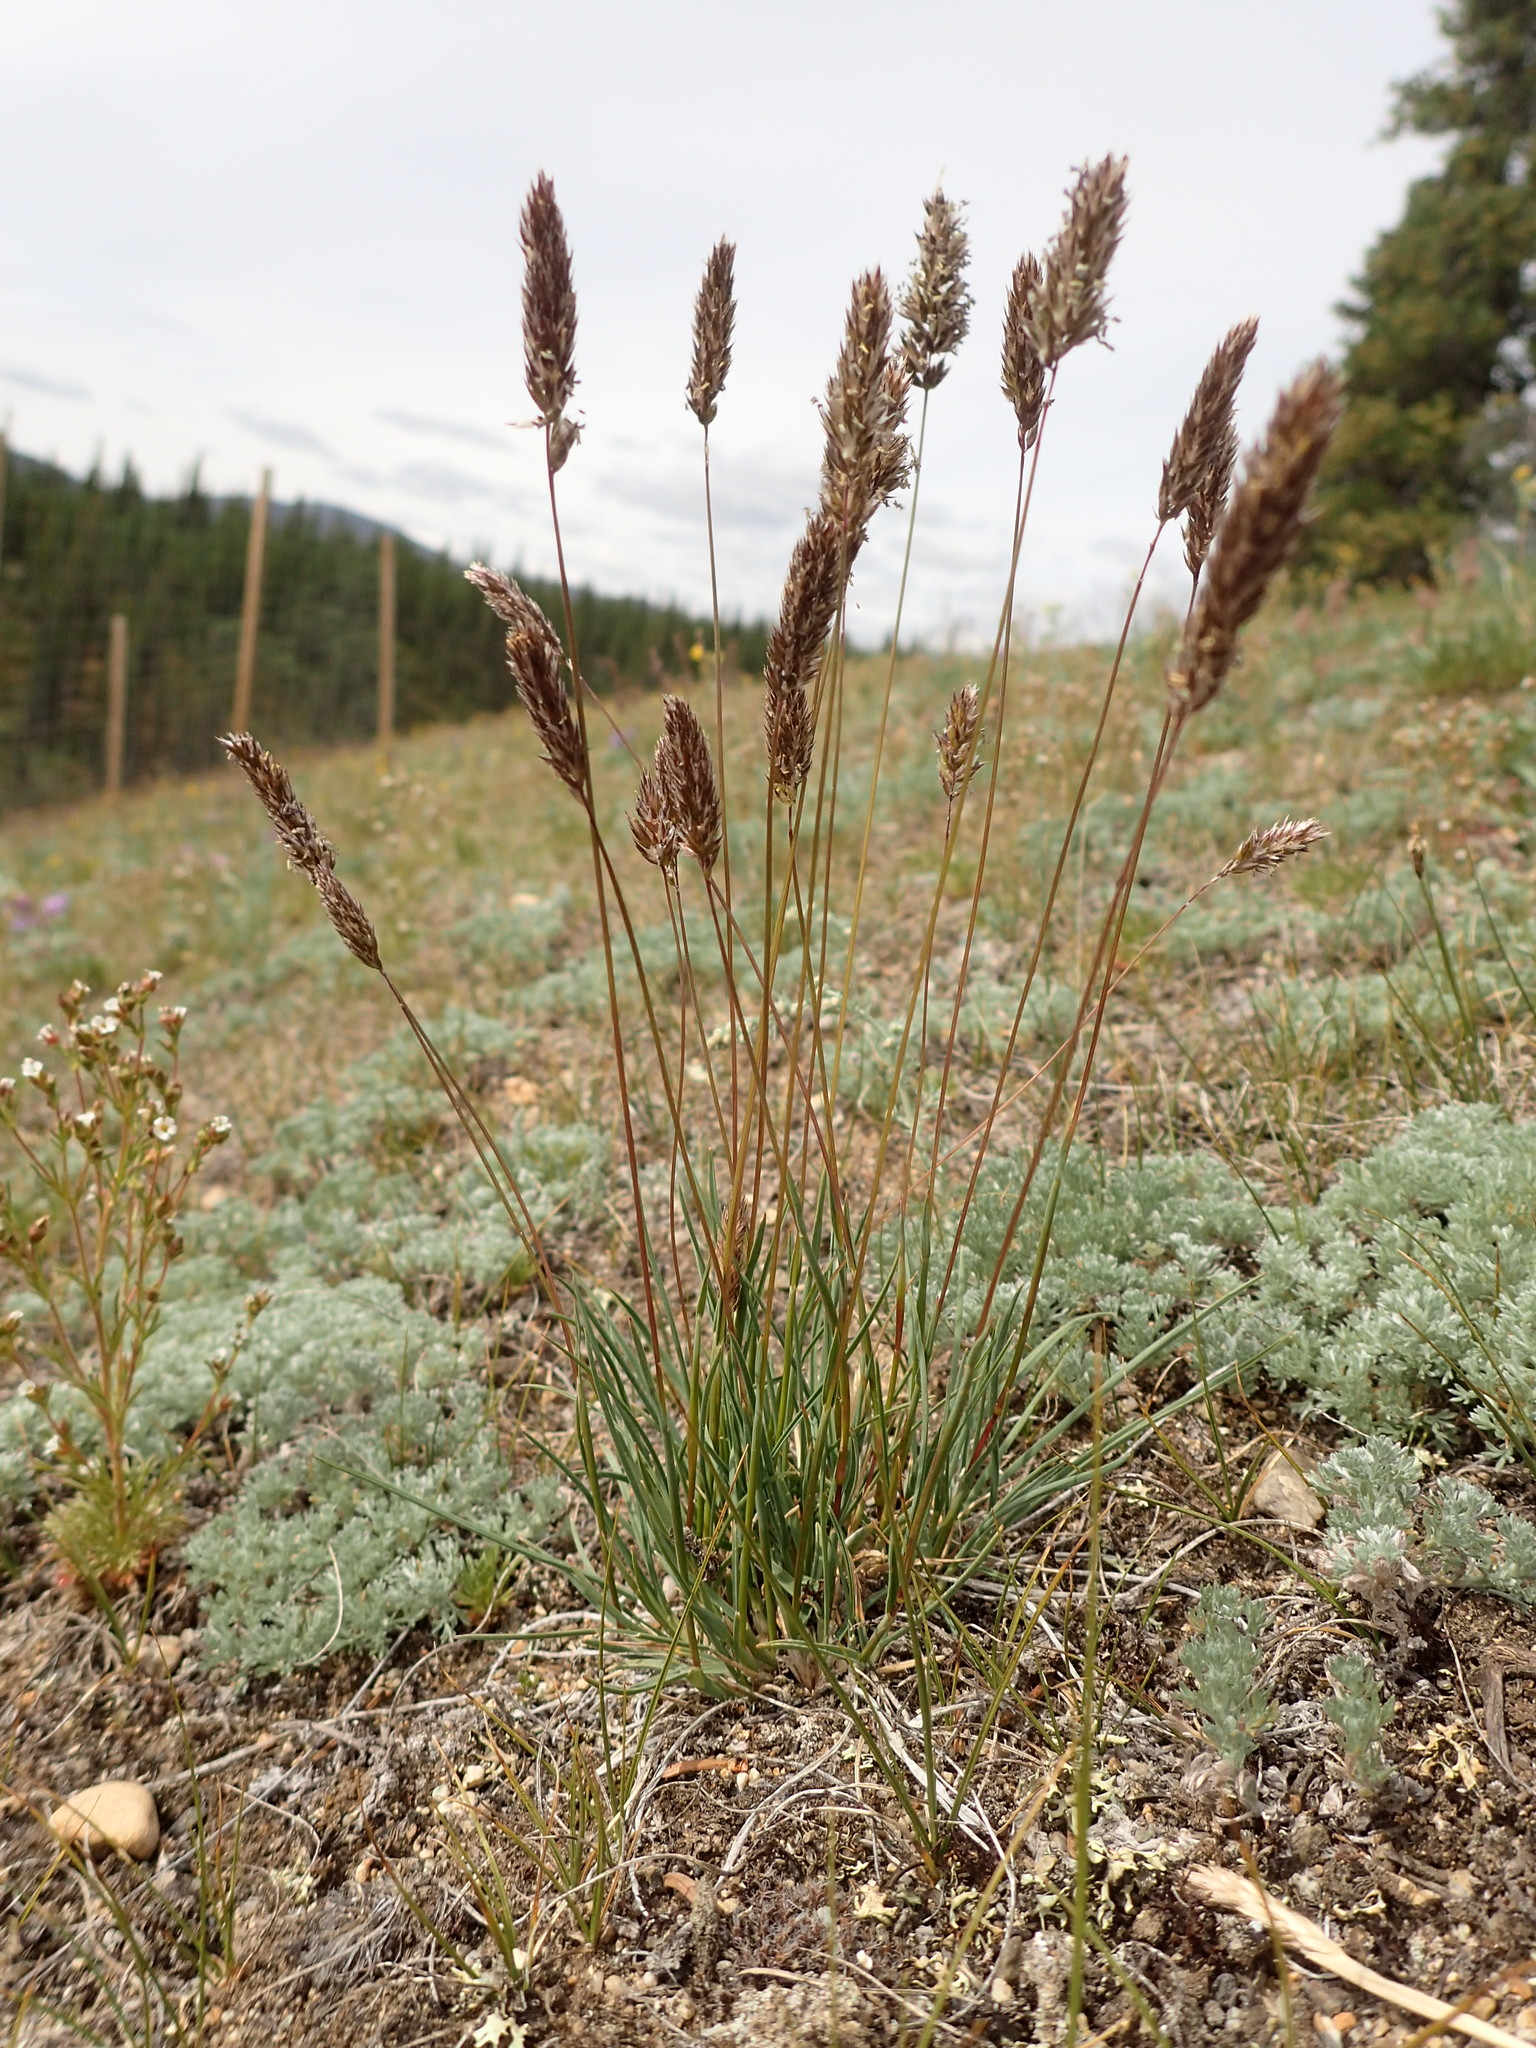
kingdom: Plantae
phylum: Tracheophyta
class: Liliopsida
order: Poales
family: Poaceae
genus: Koeleria
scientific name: Koeleria asiatica
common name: Eurasian junegrass
